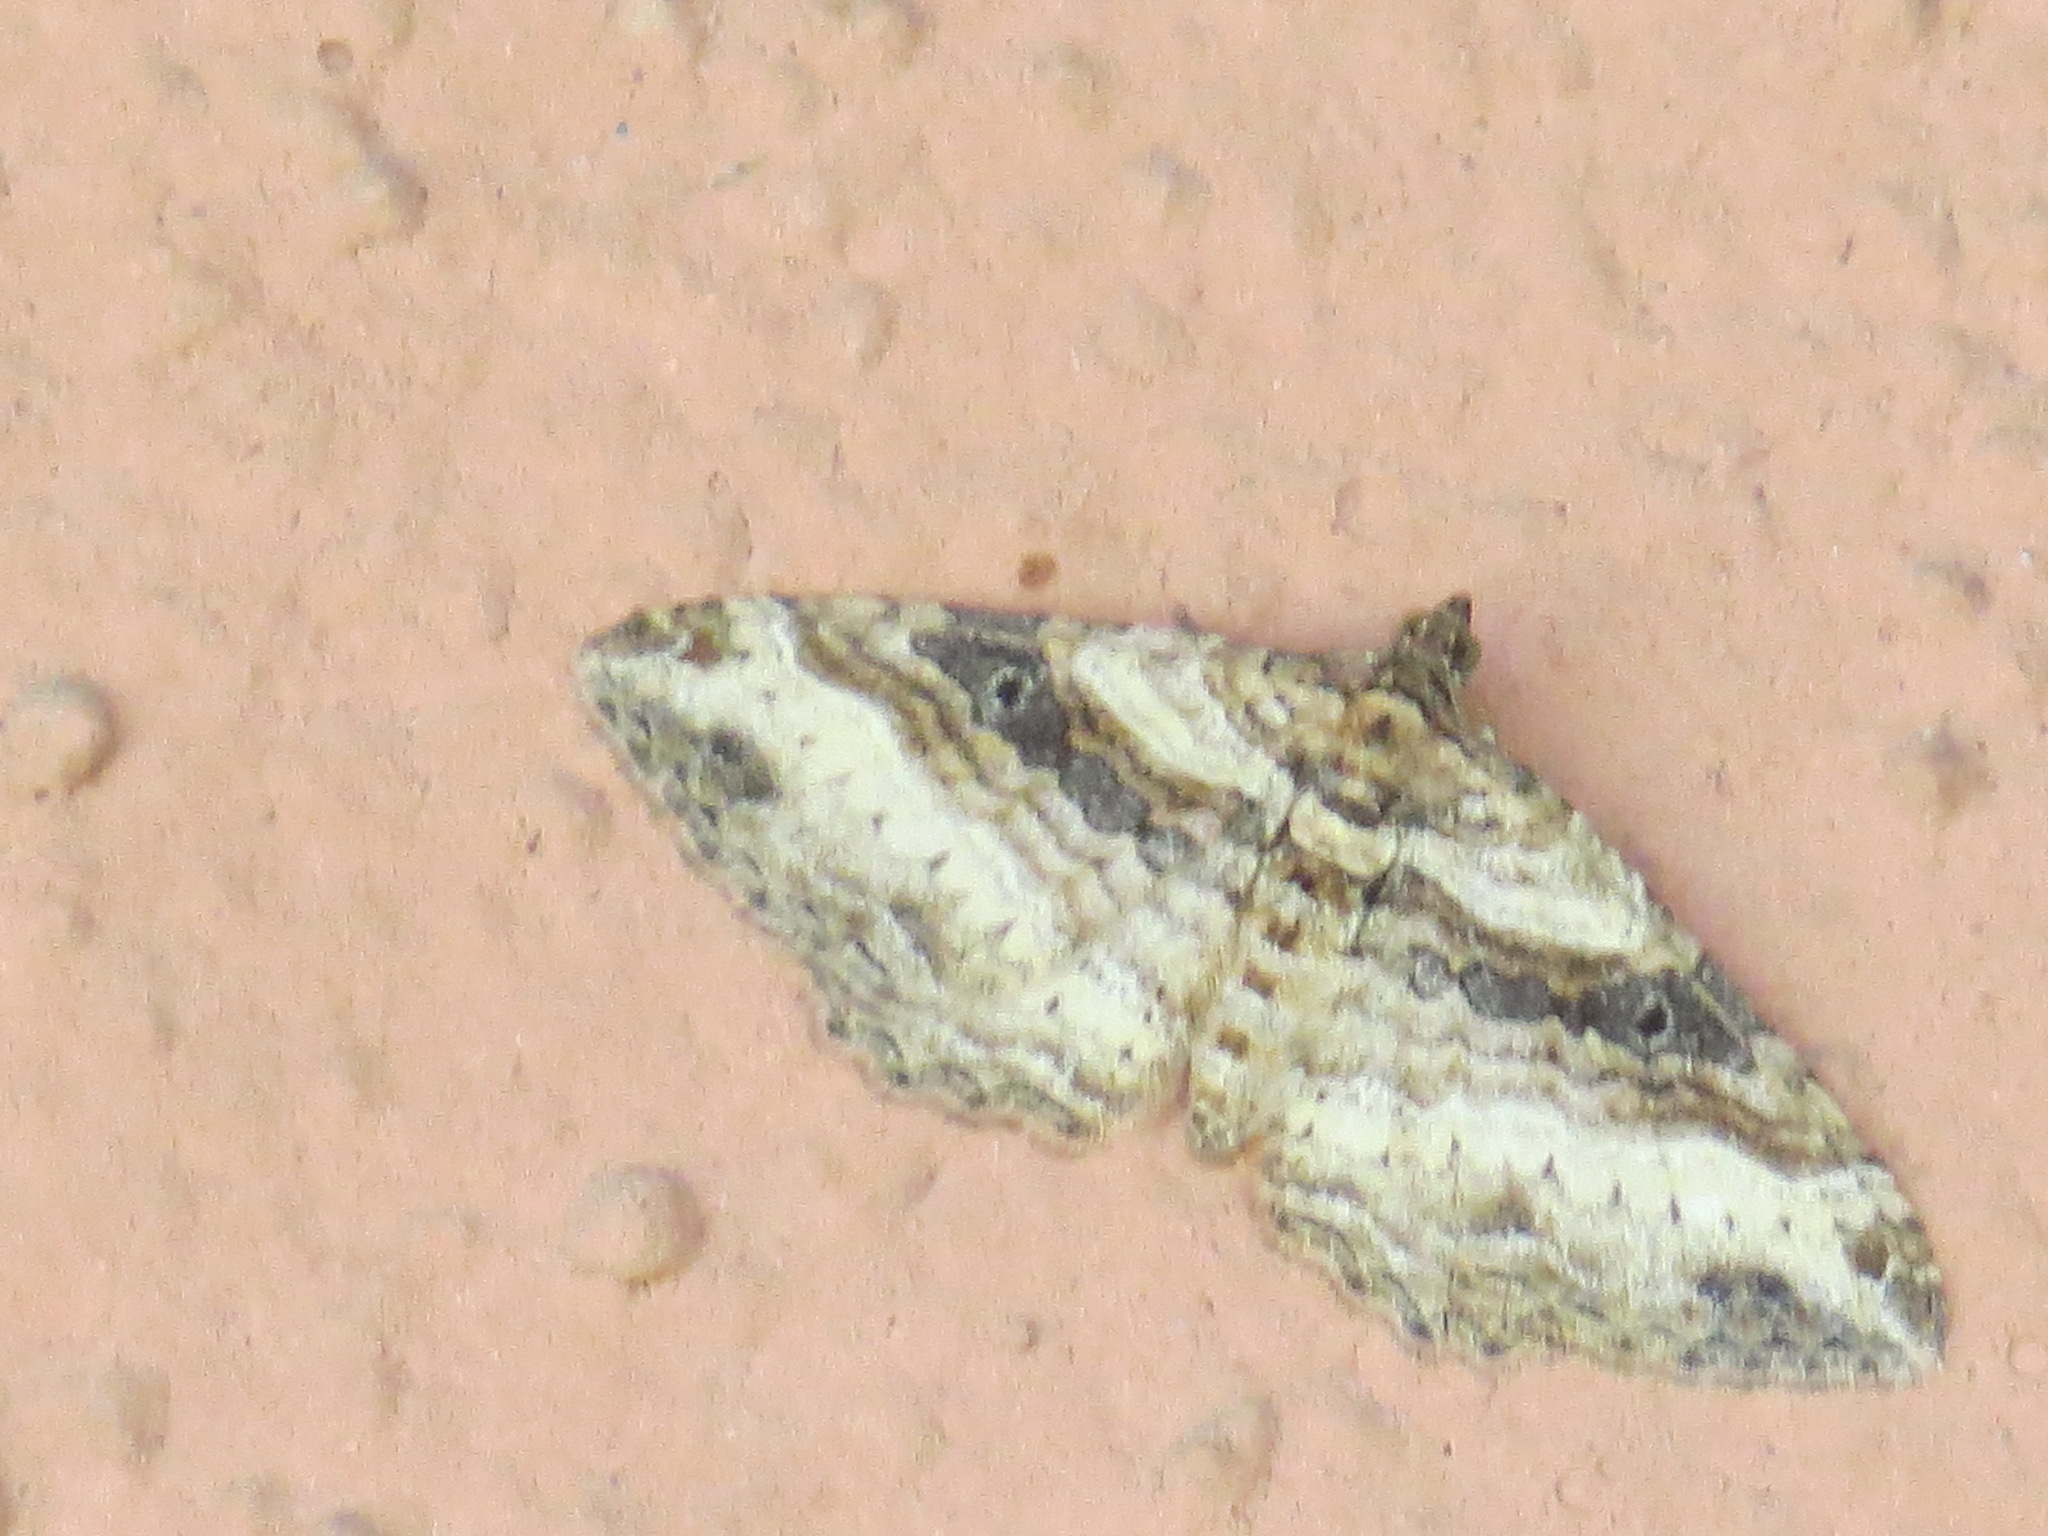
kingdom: Animalia
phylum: Arthropoda
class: Insecta
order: Lepidoptera
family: Geometridae
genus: Costaconvexa
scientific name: Costaconvexa centrostrigaria
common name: Bent-line carpet
